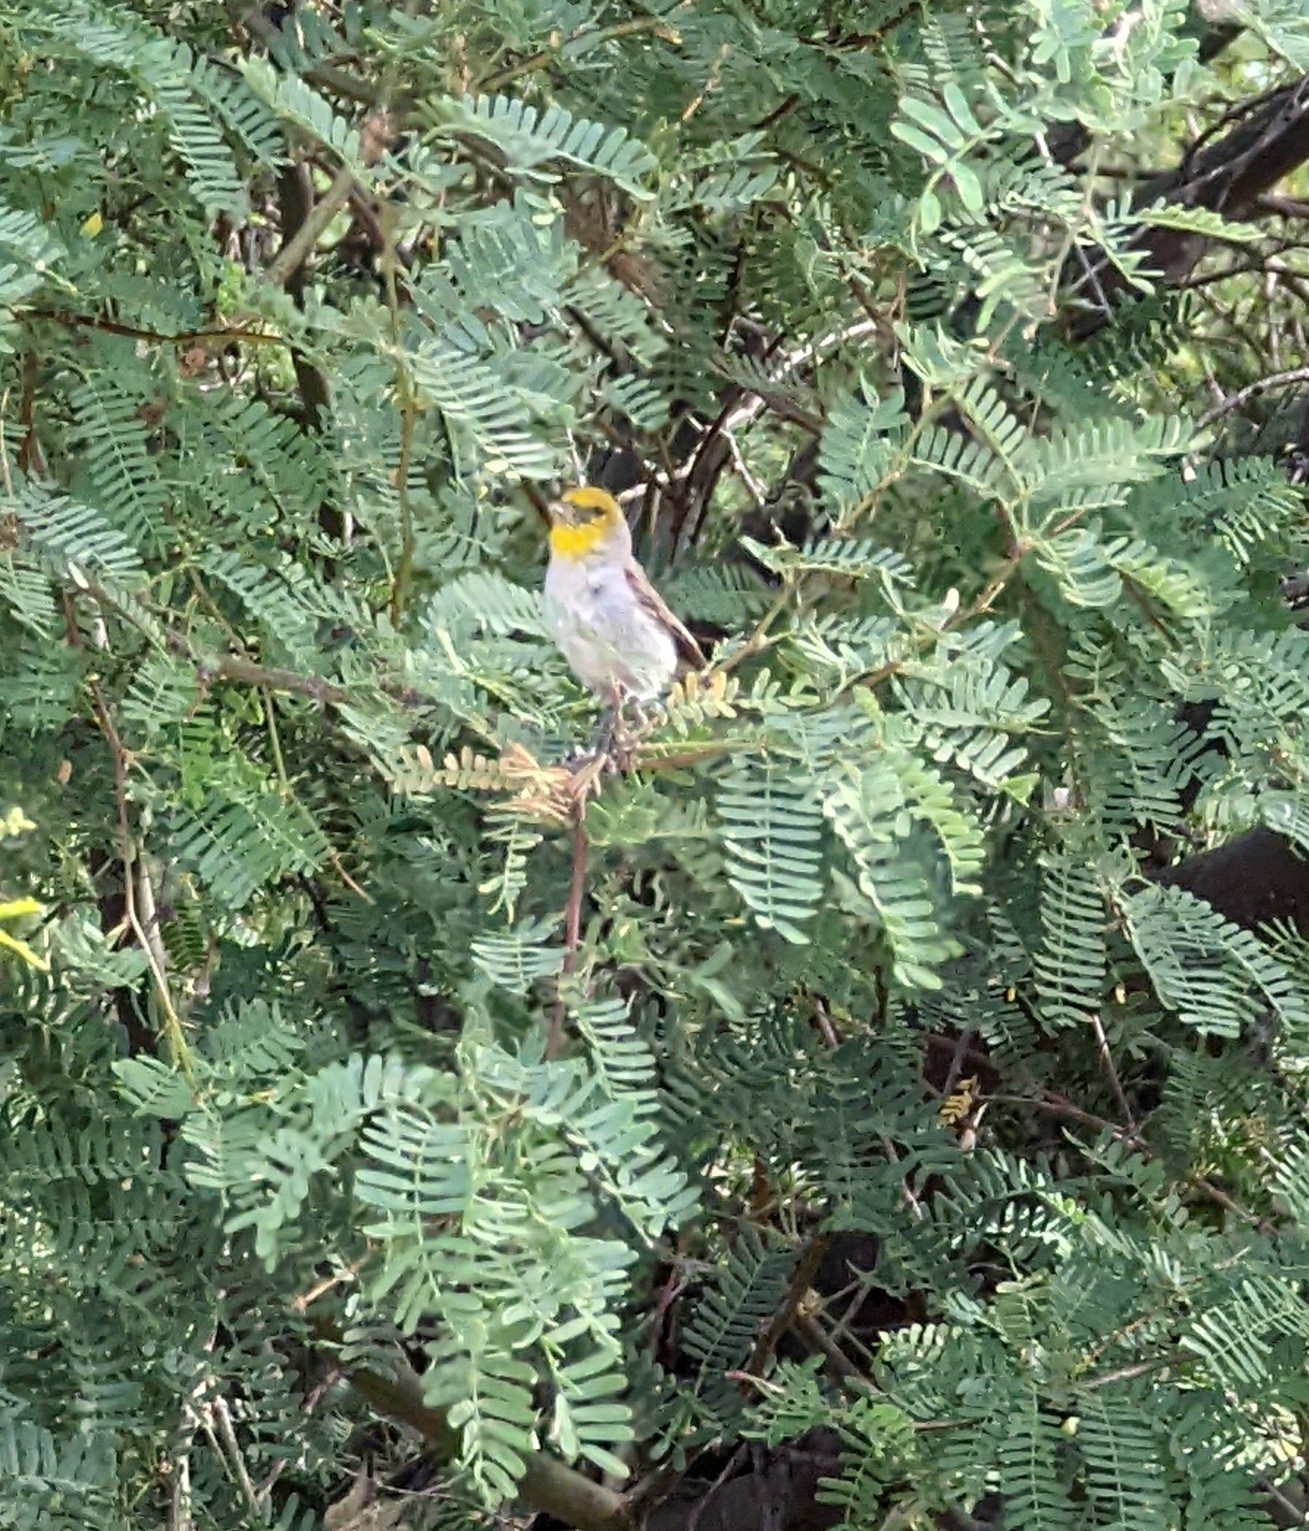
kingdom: Animalia
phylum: Chordata
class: Aves
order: Passeriformes
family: Remizidae
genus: Auriparus
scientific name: Auriparus flaviceps
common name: Verdin
